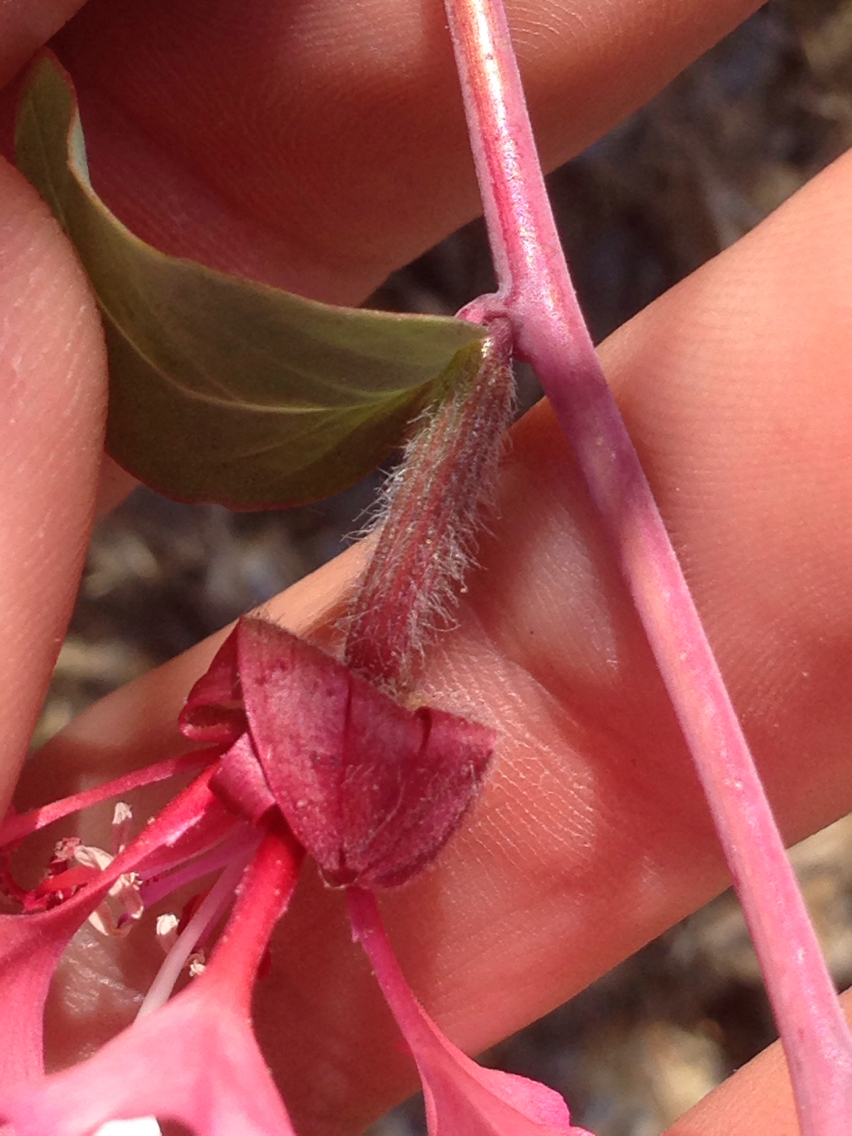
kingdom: Plantae
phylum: Tracheophyta
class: Magnoliopsida
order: Myrtales
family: Onagraceae
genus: Clarkia
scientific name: Clarkia unguiculata
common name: Clarkia
